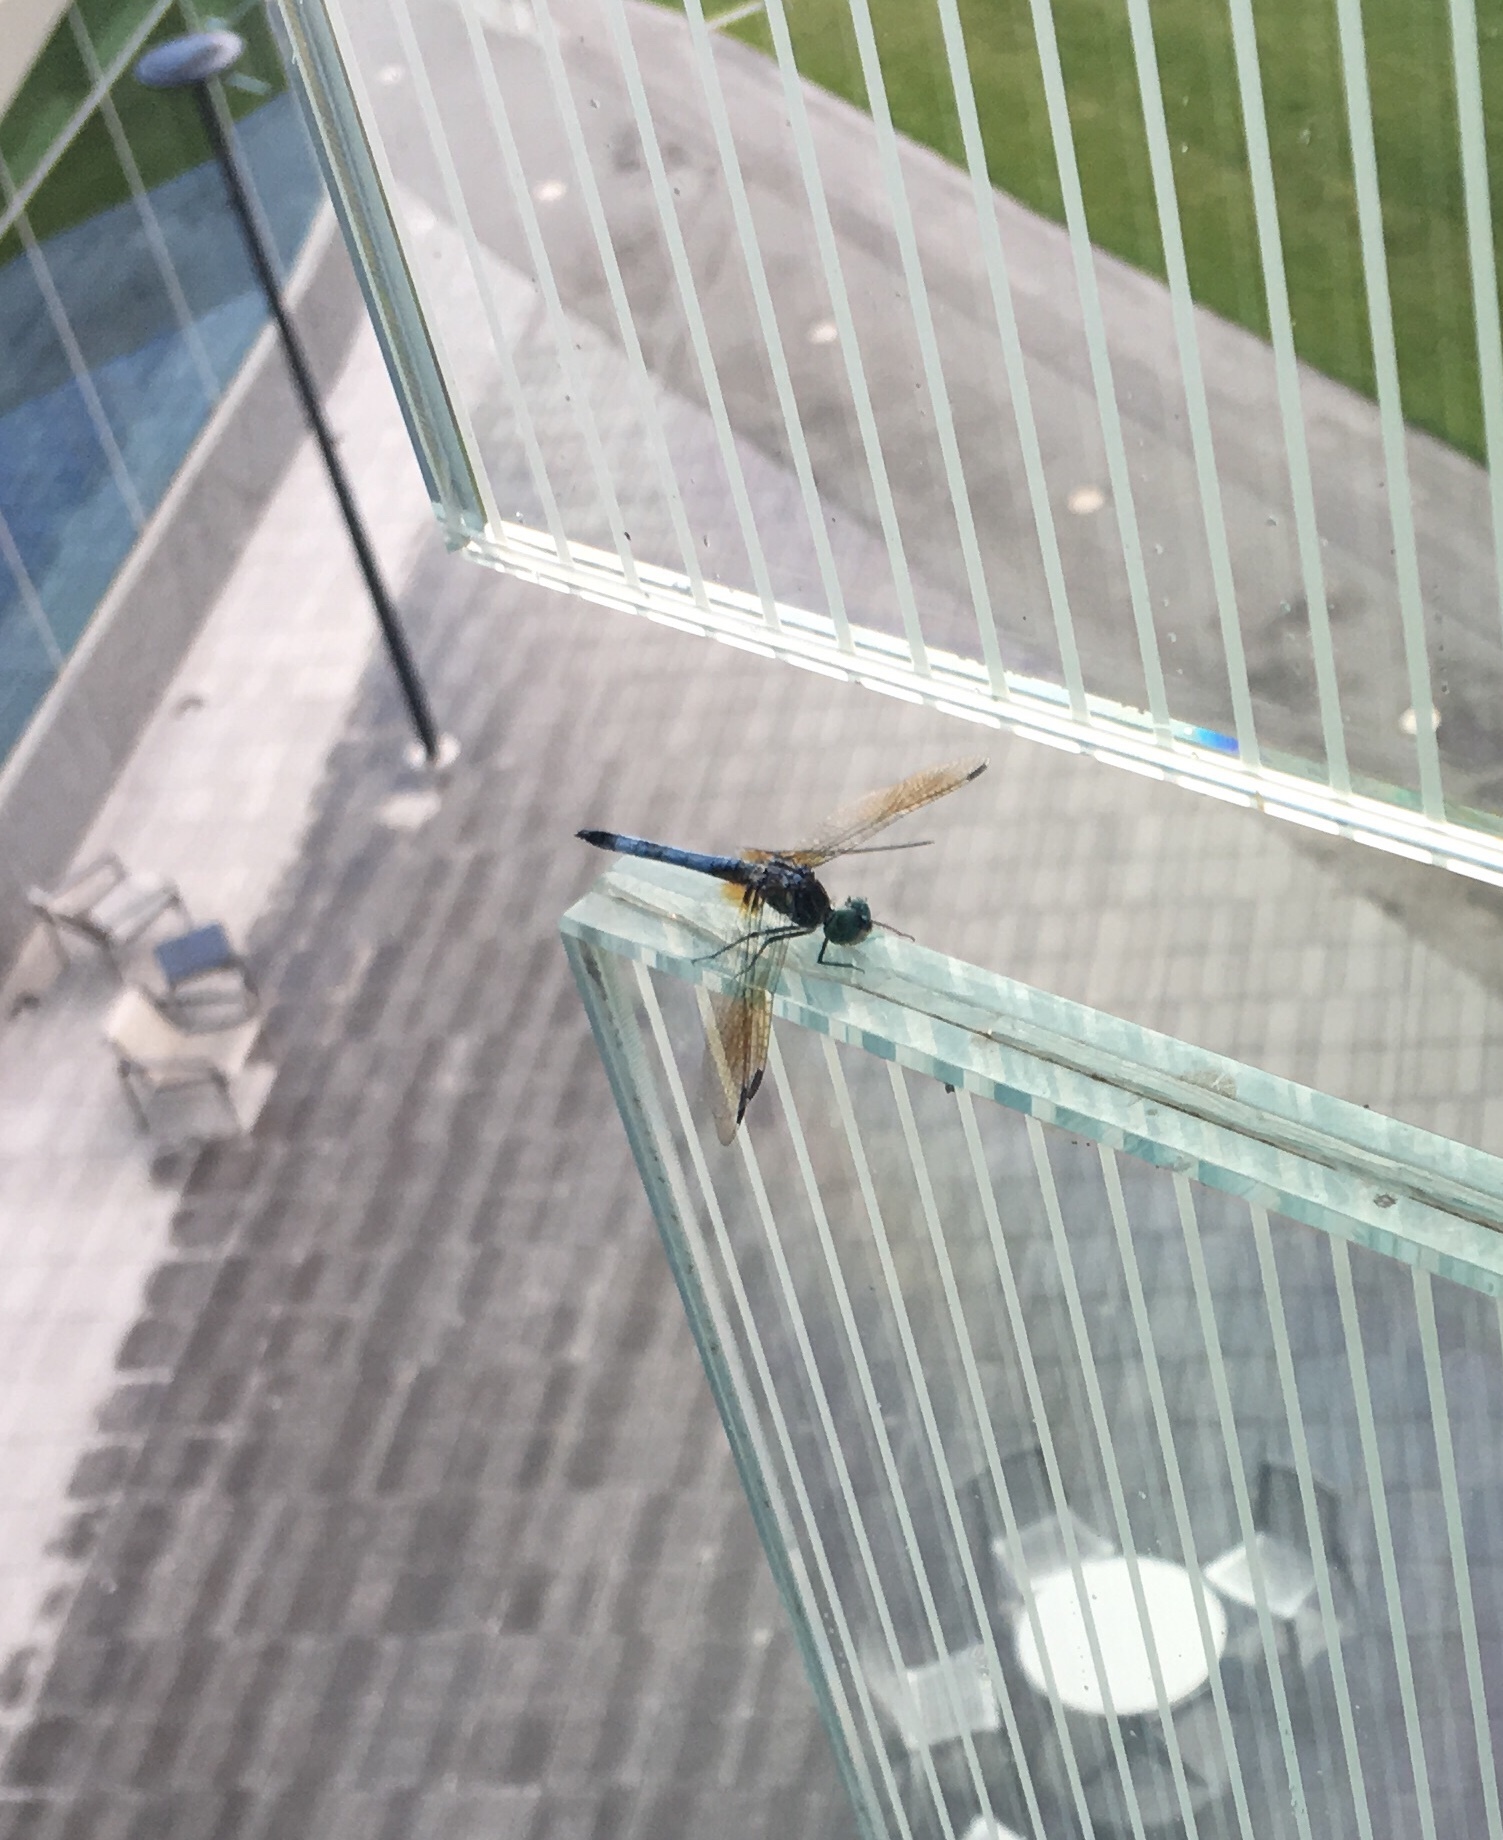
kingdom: Animalia
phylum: Arthropoda
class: Insecta
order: Odonata
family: Libellulidae
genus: Pachydiplax
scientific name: Pachydiplax longipennis
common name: Blue dasher
